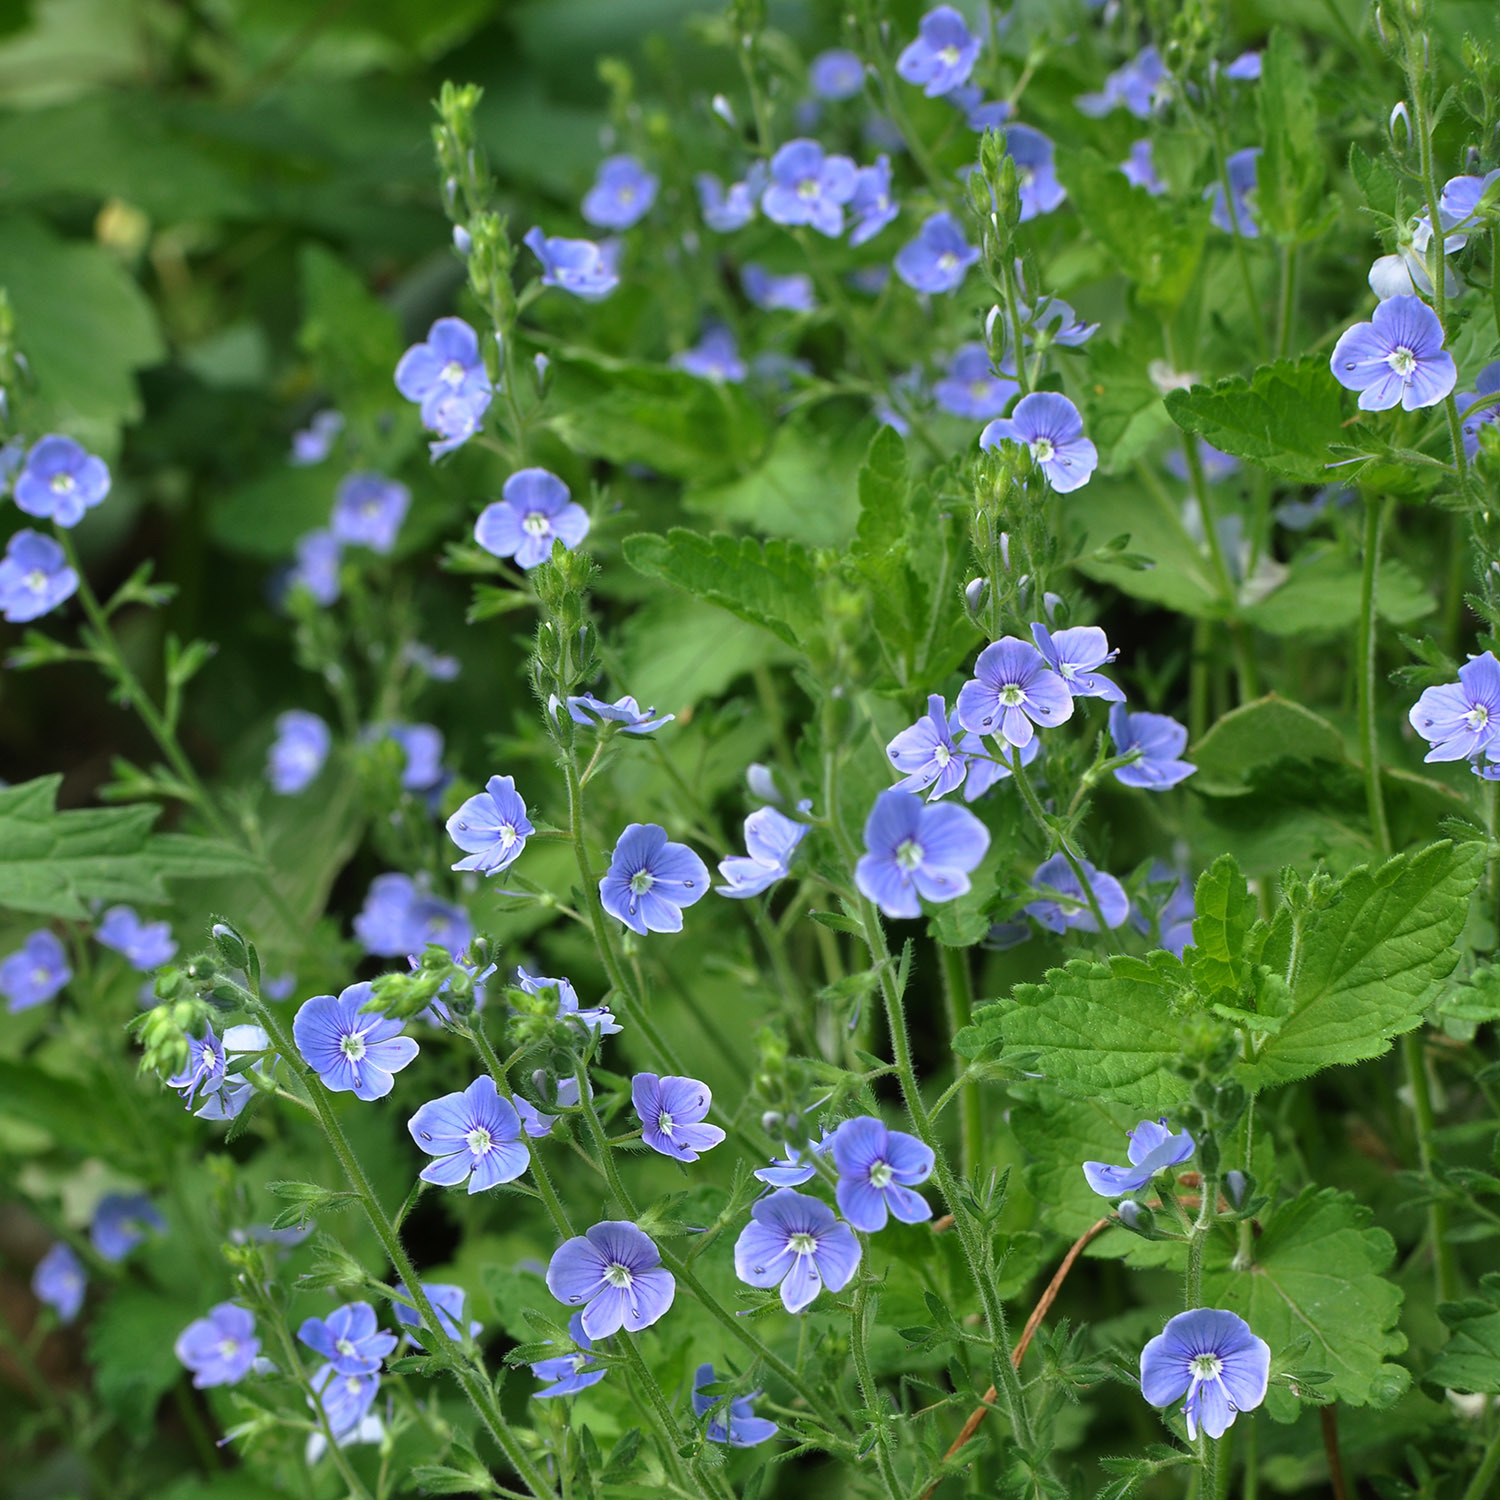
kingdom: Plantae
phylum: Tracheophyta
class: Magnoliopsida
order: Lamiales
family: Plantaginaceae
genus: Veronica
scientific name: Veronica chamaedrys
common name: Germander speedwell
